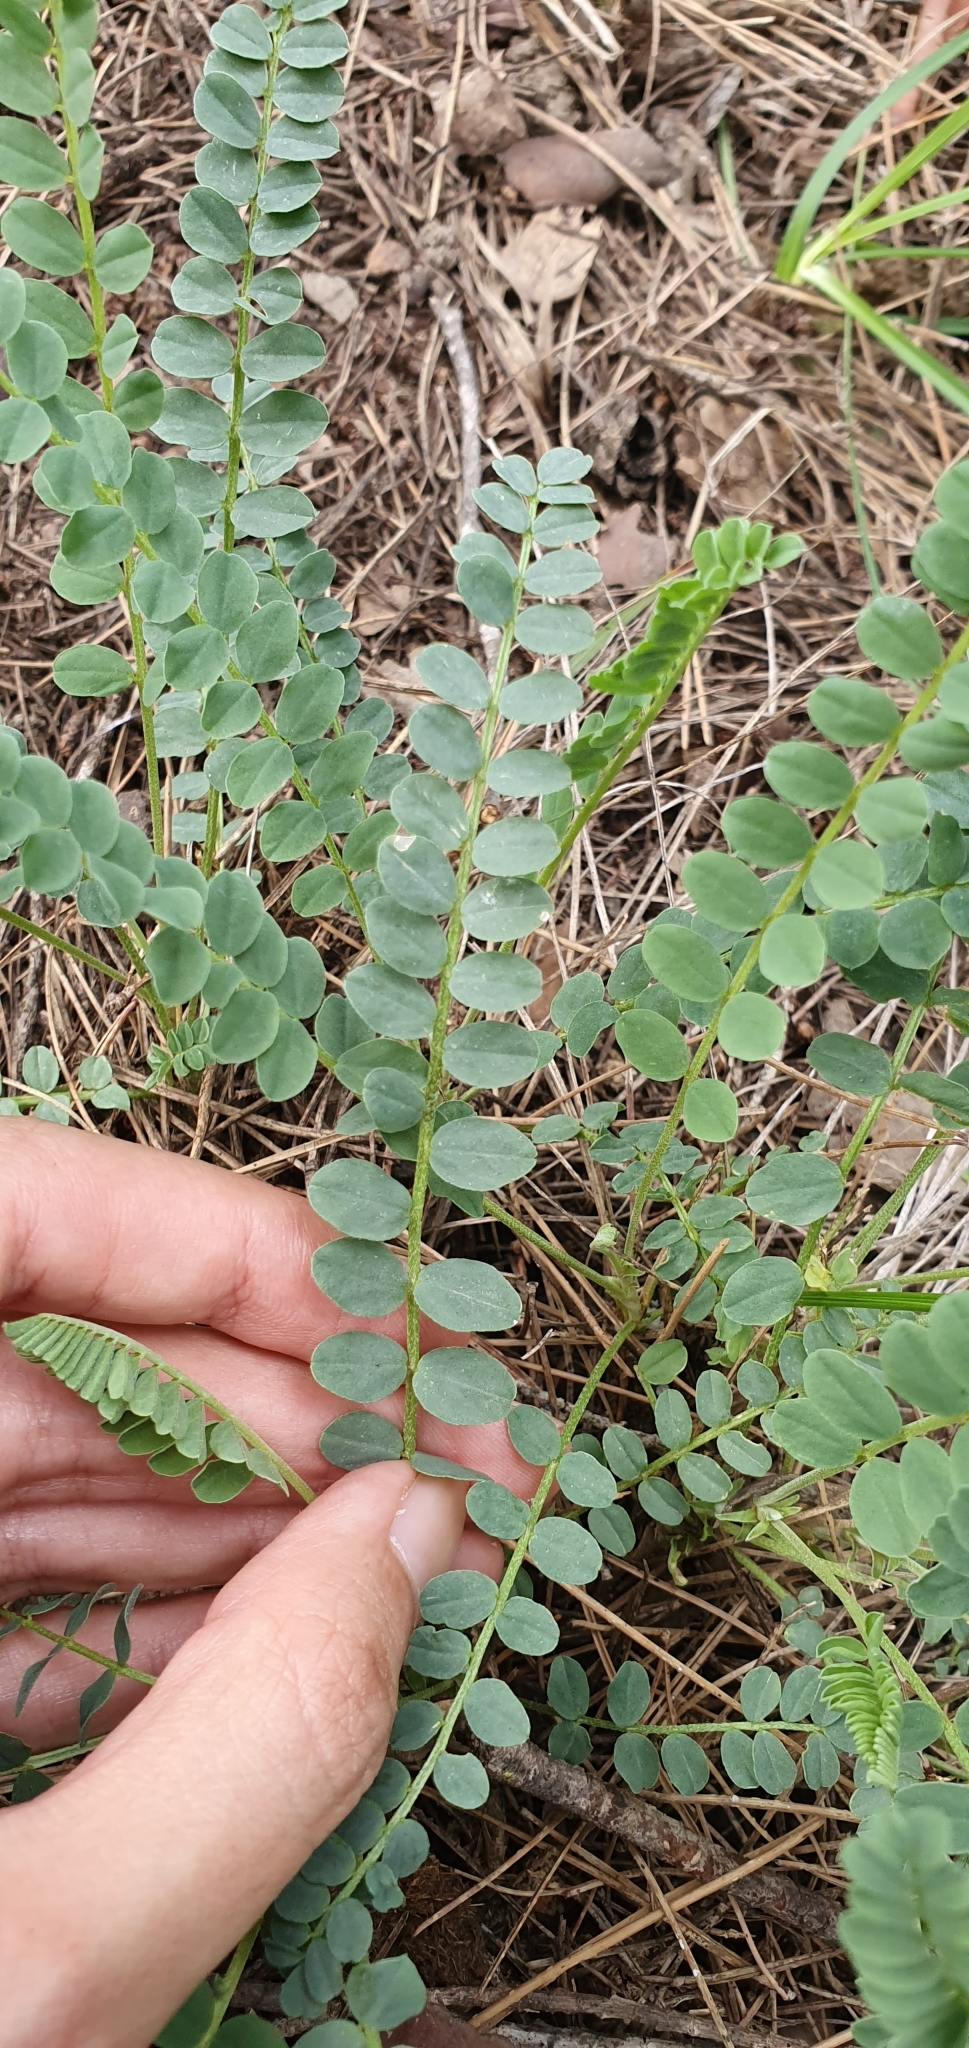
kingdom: Plantae
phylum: Tracheophyta
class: Magnoliopsida
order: Fabales
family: Fabaceae
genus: Astragalus
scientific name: Astragalus monspessulanus
